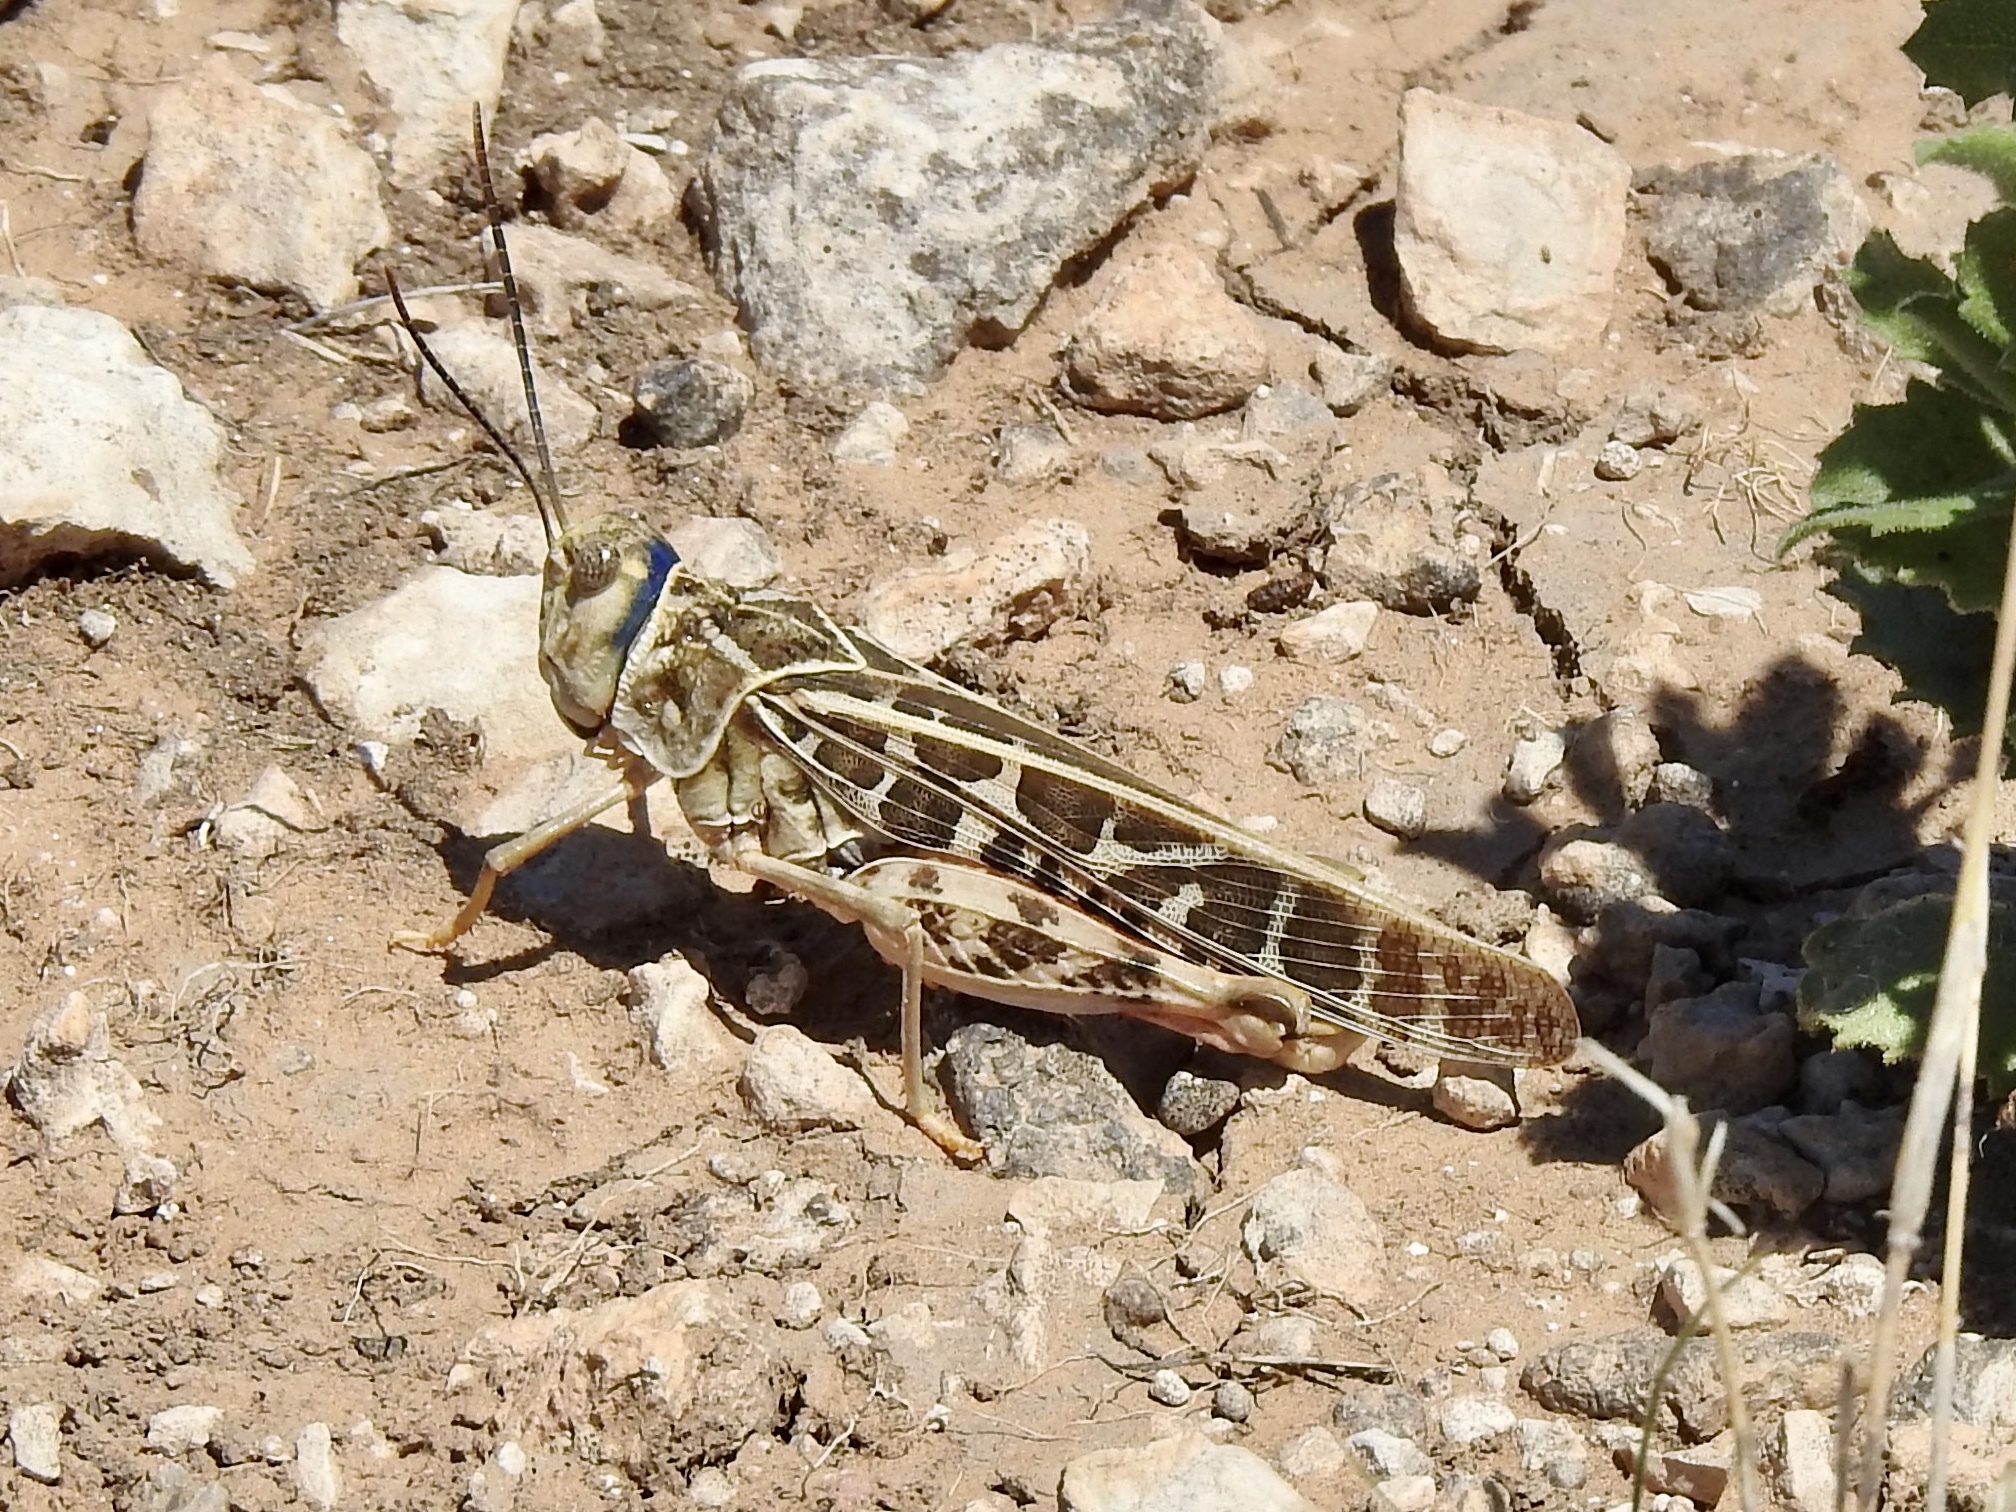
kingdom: Animalia
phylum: Arthropoda
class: Insecta
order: Orthoptera
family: Acrididae
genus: Xanthippus
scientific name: Xanthippus corallipes
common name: Redshanked grasshopper
